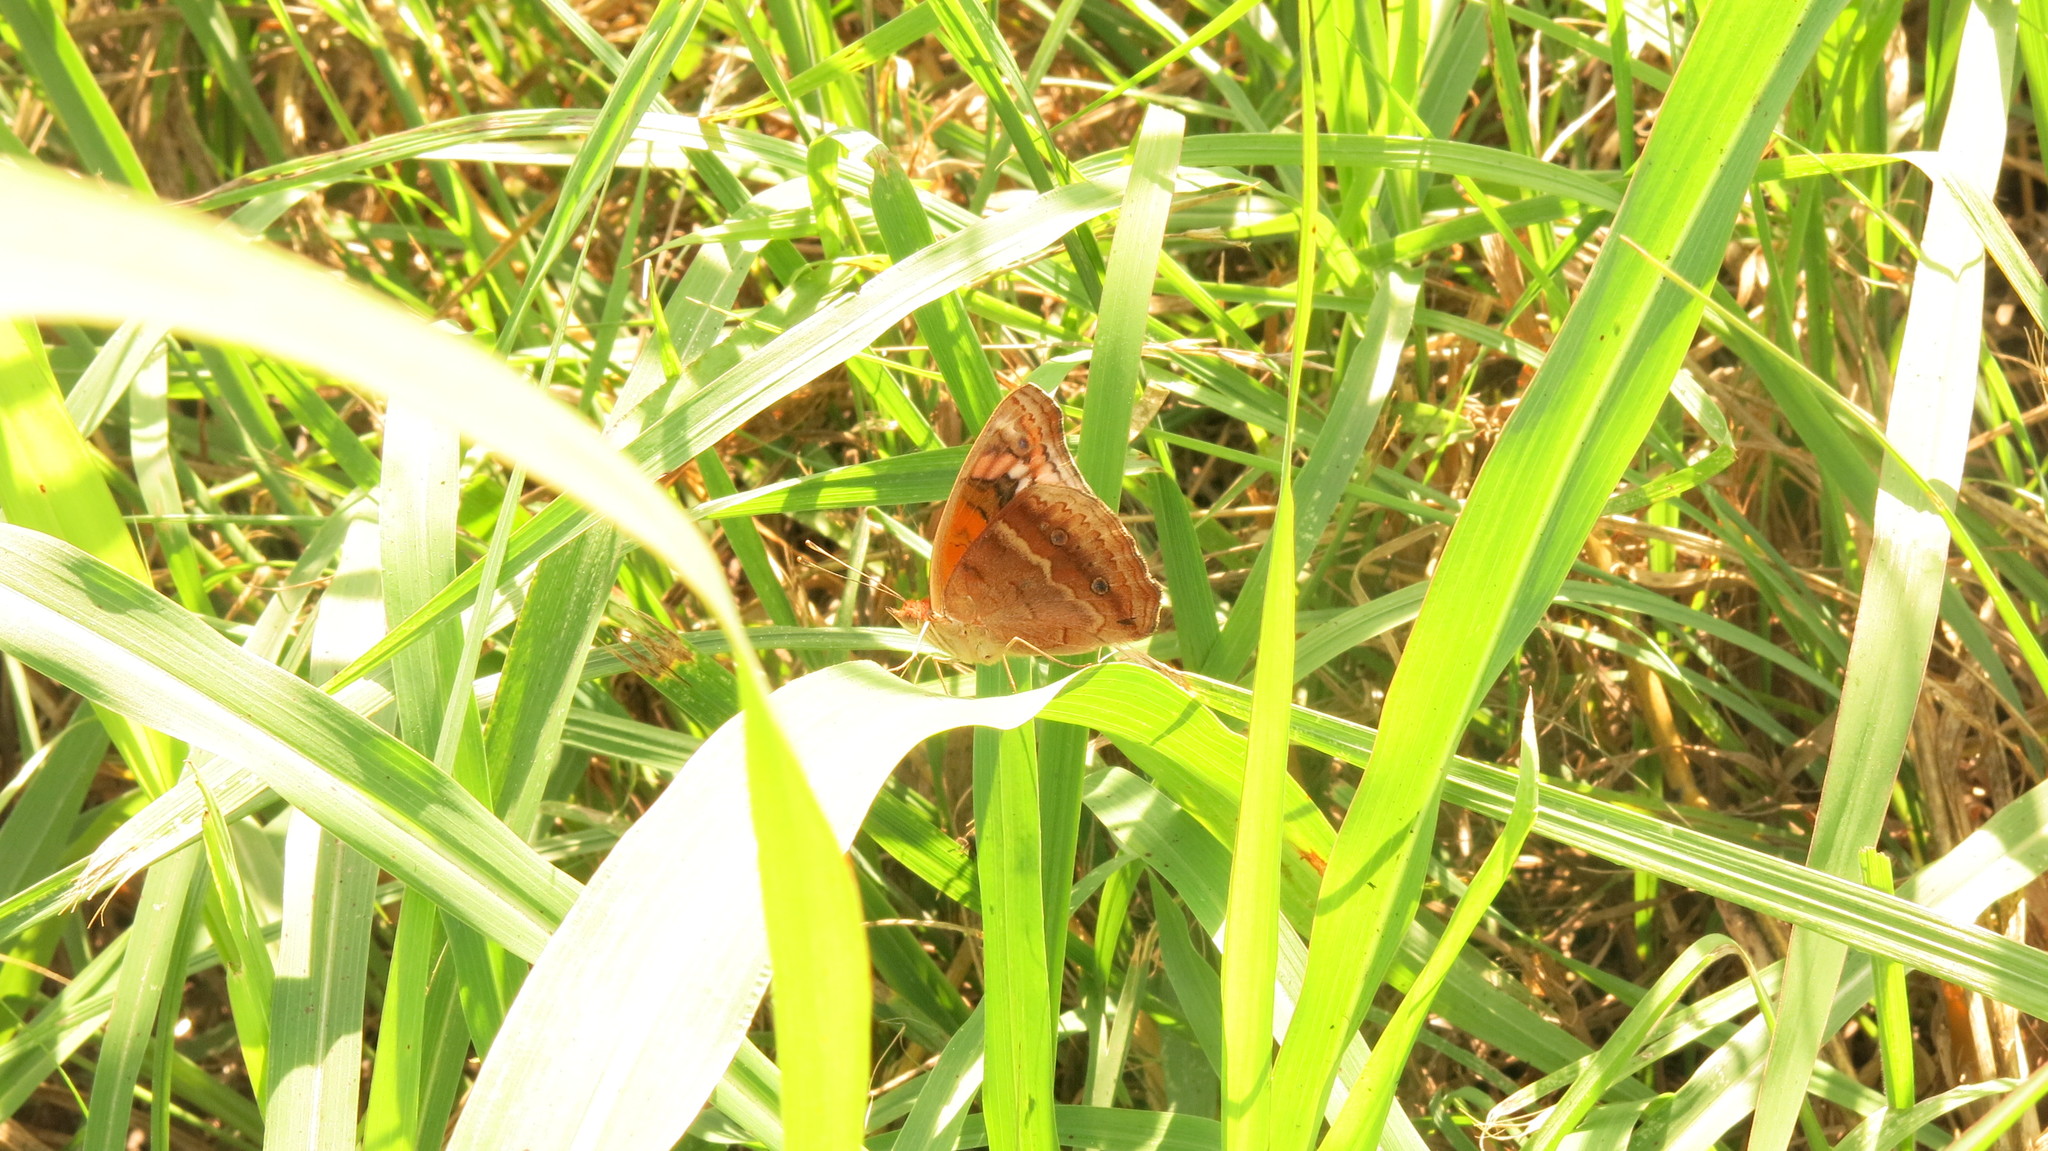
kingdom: Animalia
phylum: Arthropoda
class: Insecta
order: Lepidoptera
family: Nymphalidae
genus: Junonia
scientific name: Junonia lavinia
